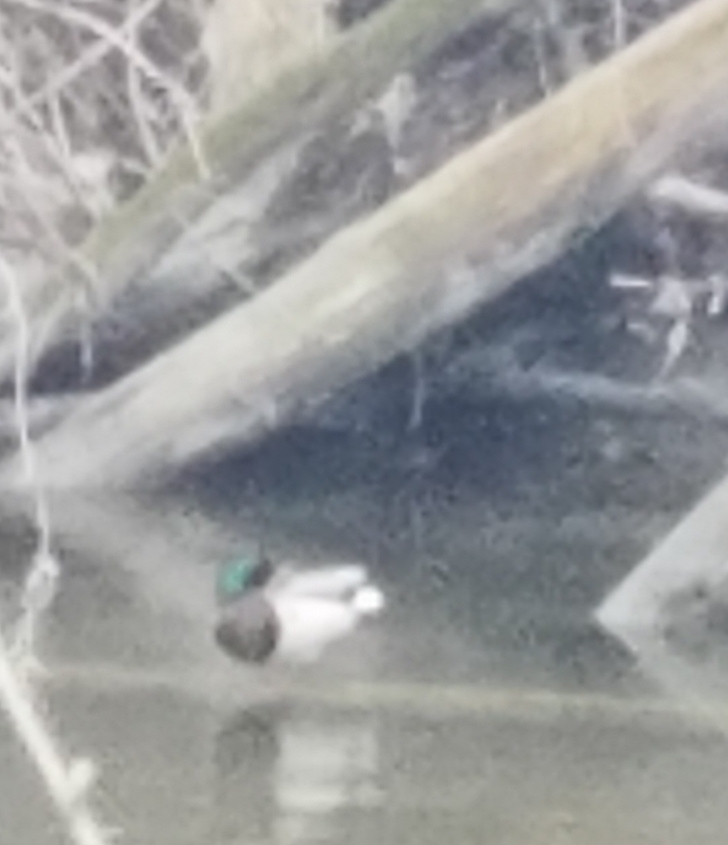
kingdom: Animalia
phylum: Chordata
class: Aves
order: Anseriformes
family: Anatidae
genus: Anas
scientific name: Anas platyrhynchos
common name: Mallard
